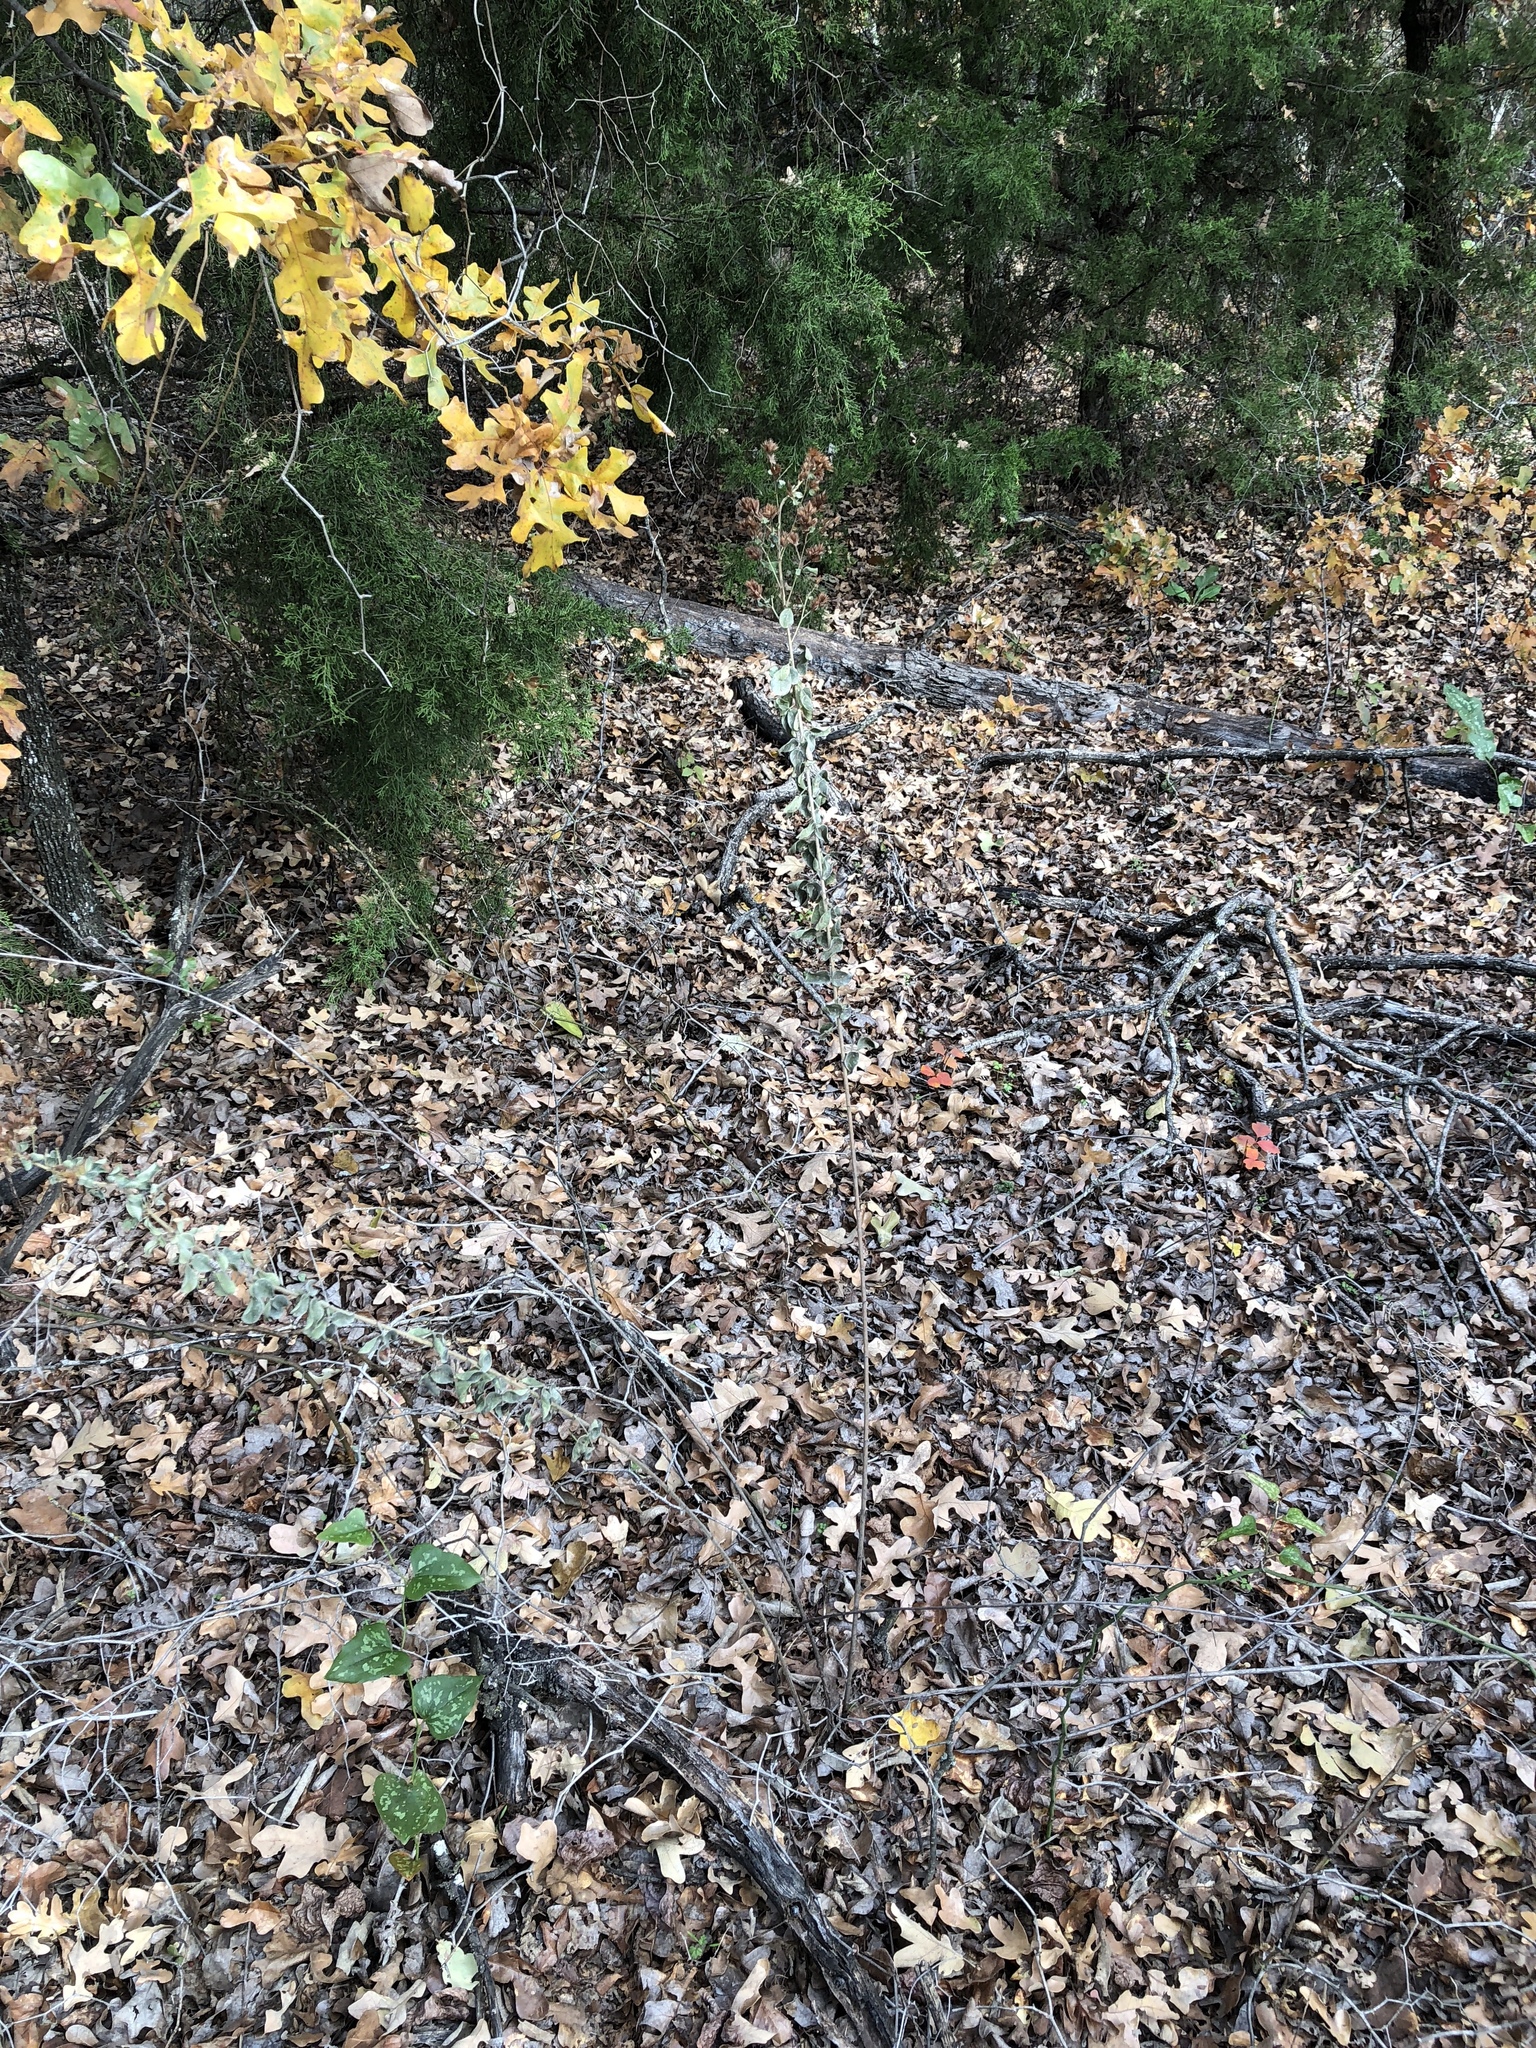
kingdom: Plantae
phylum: Tracheophyta
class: Magnoliopsida
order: Fabales
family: Fabaceae
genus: Lespedeza
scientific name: Lespedeza hirta
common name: Hairy lespedeza
